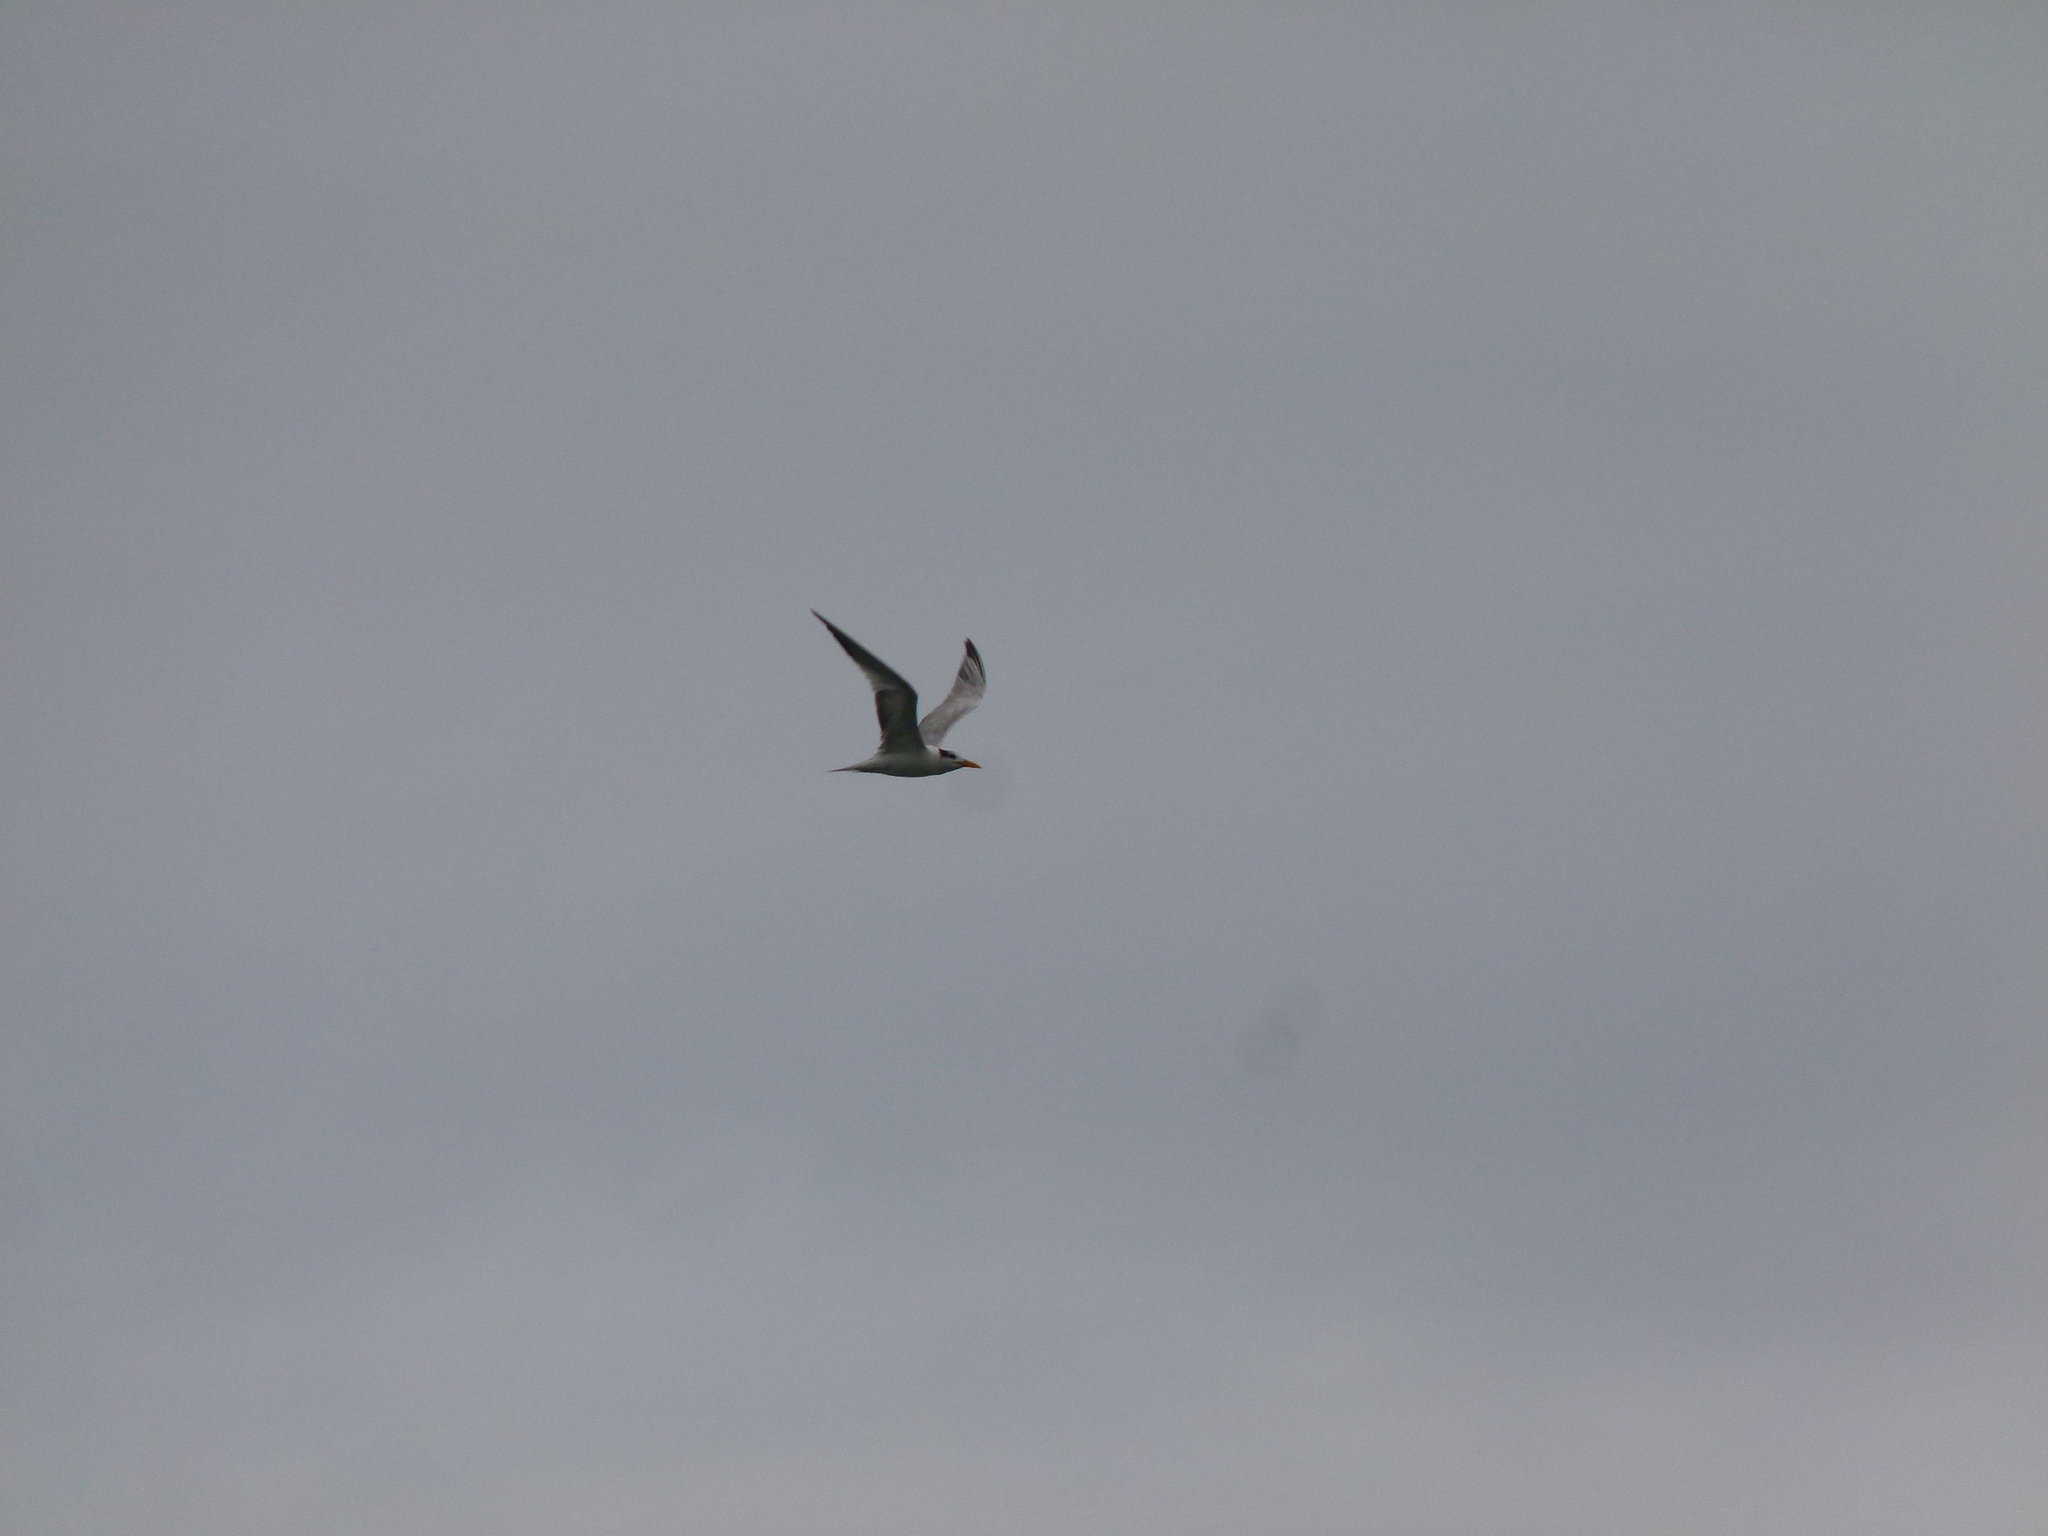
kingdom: Animalia
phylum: Chordata
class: Aves
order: Charadriiformes
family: Laridae
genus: Thalasseus
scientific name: Thalasseus maximus
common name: Royal tern
